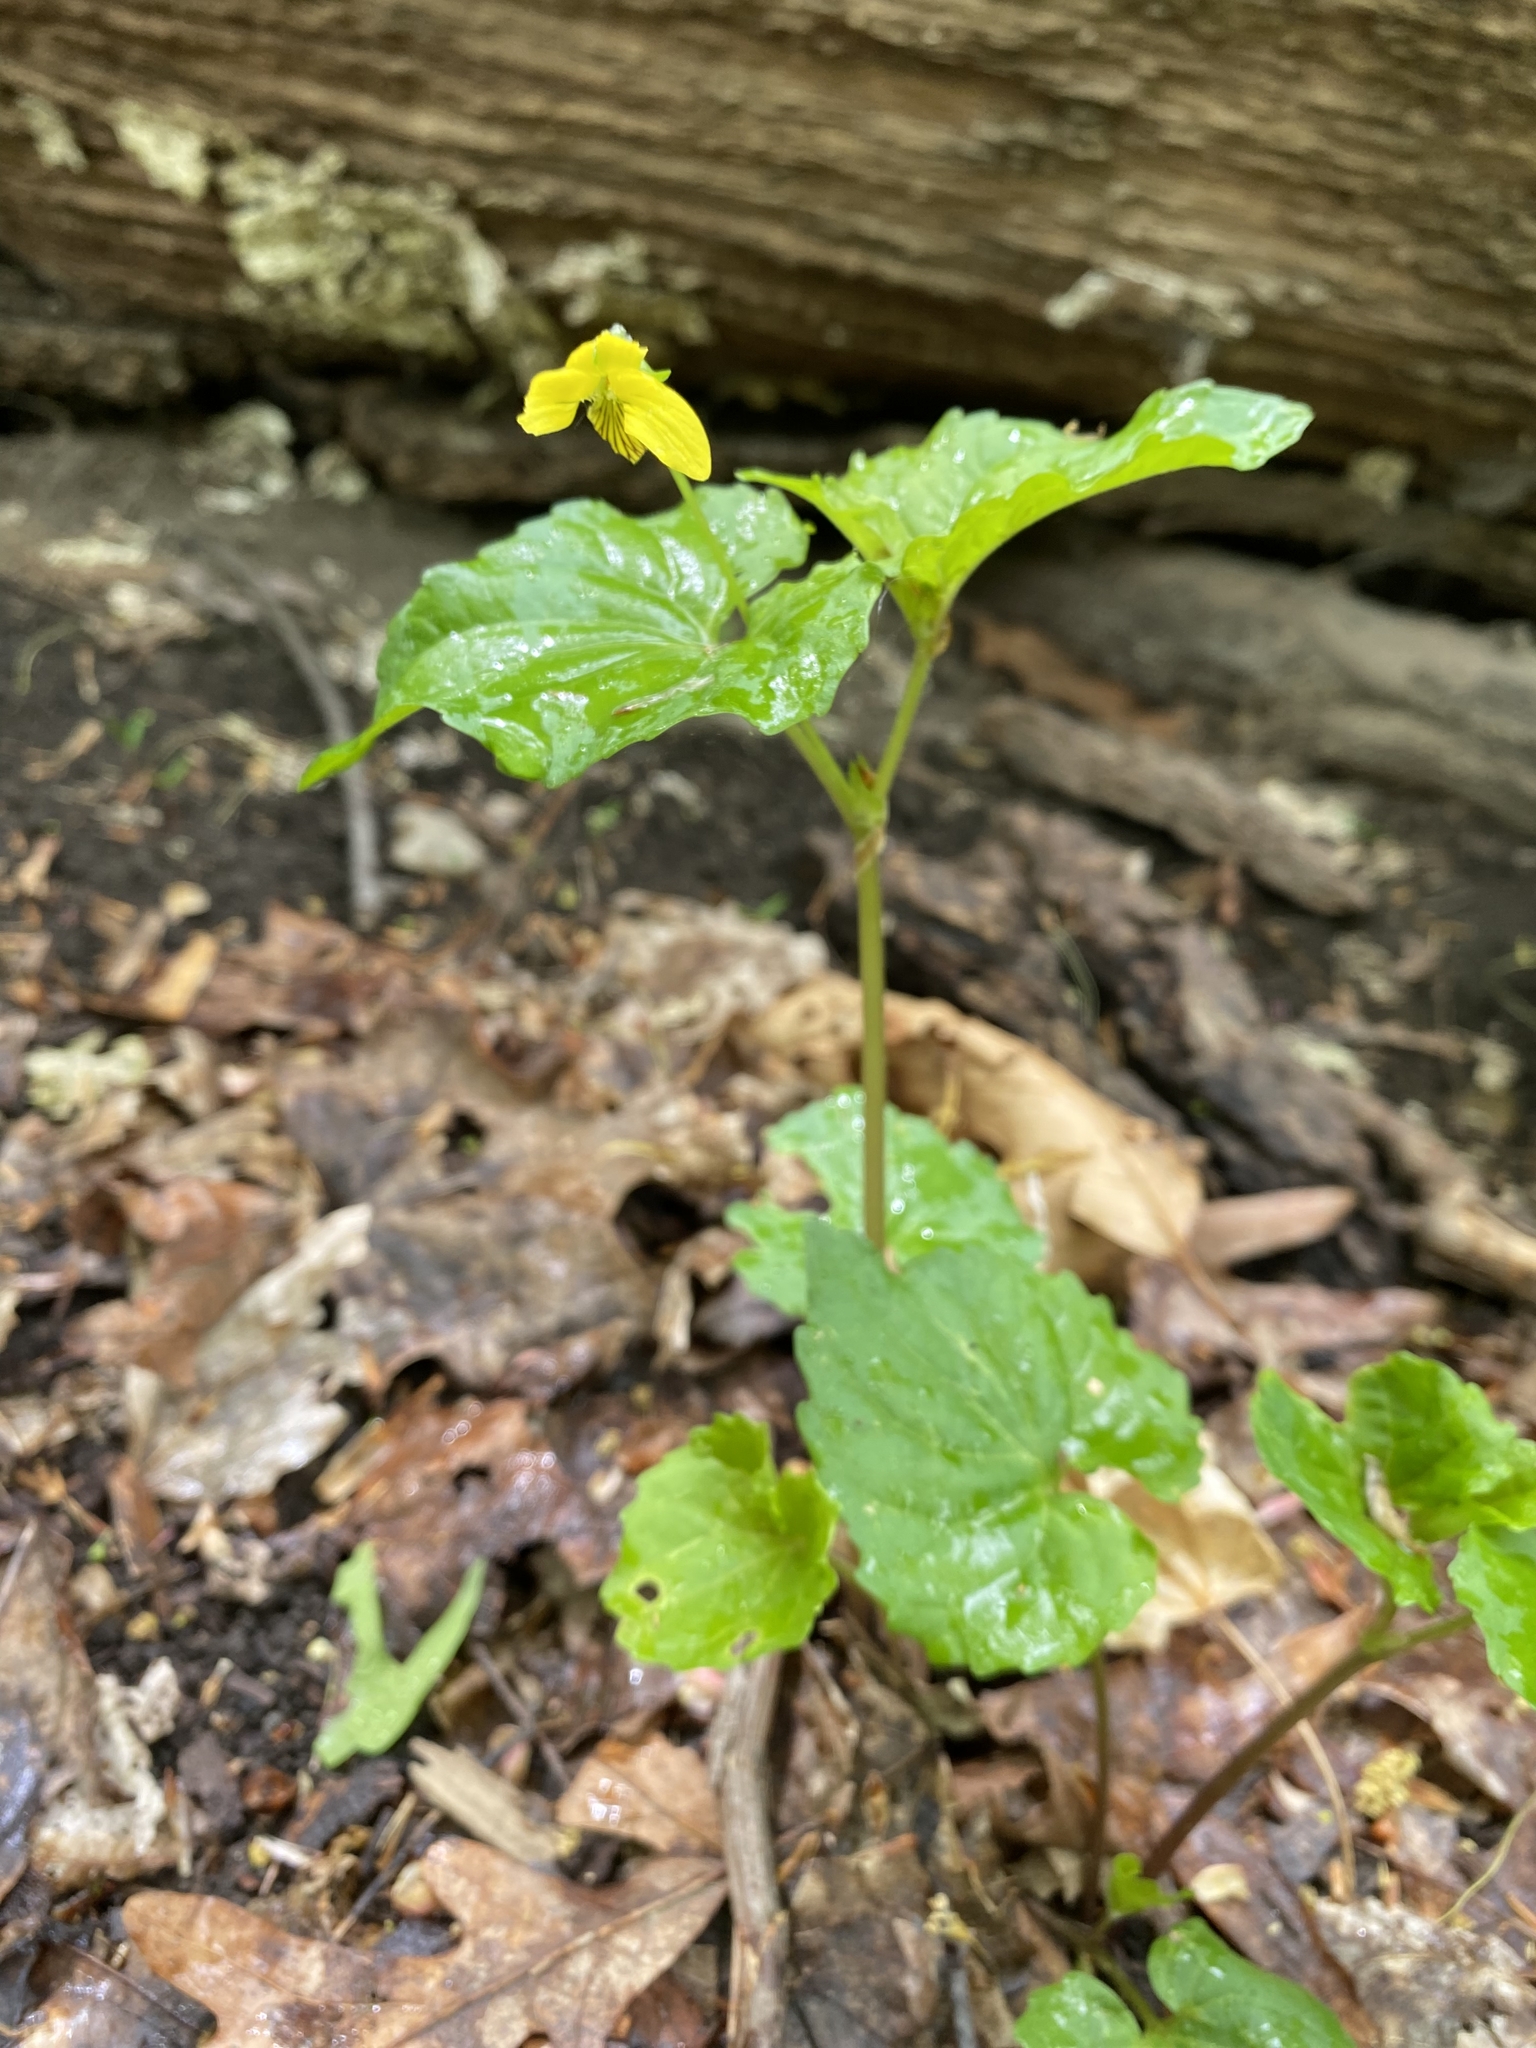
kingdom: Plantae
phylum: Tracheophyta
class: Magnoliopsida
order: Malpighiales
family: Violaceae
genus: Viola
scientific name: Viola eriocarpa
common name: Smooth yellow violet
